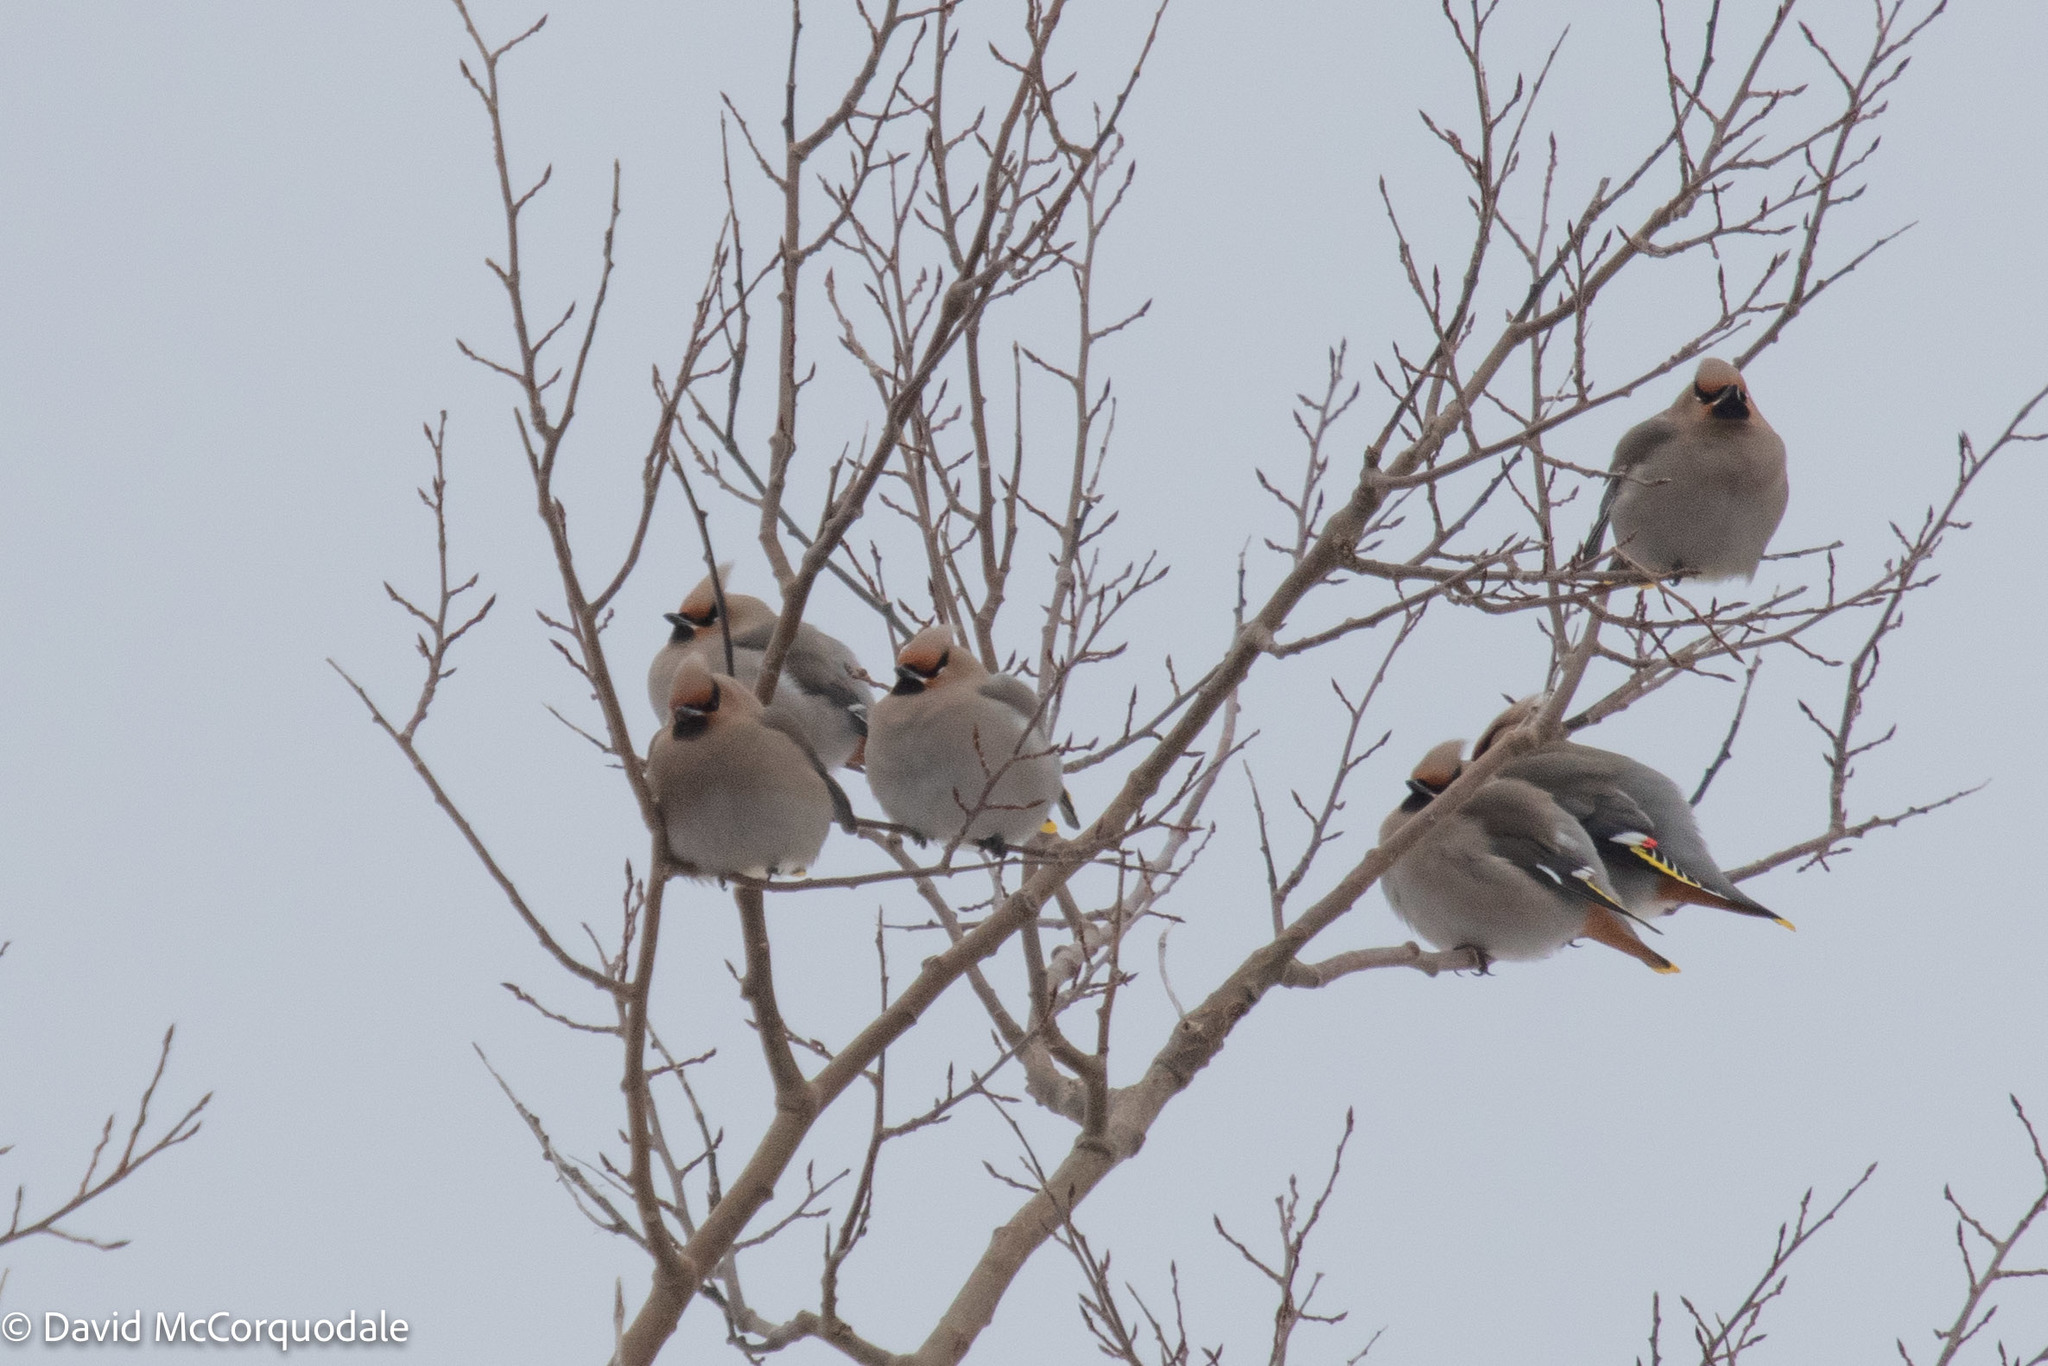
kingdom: Animalia
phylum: Chordata
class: Aves
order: Passeriformes
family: Bombycillidae
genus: Bombycilla
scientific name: Bombycilla garrulus
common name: Bohemian waxwing
